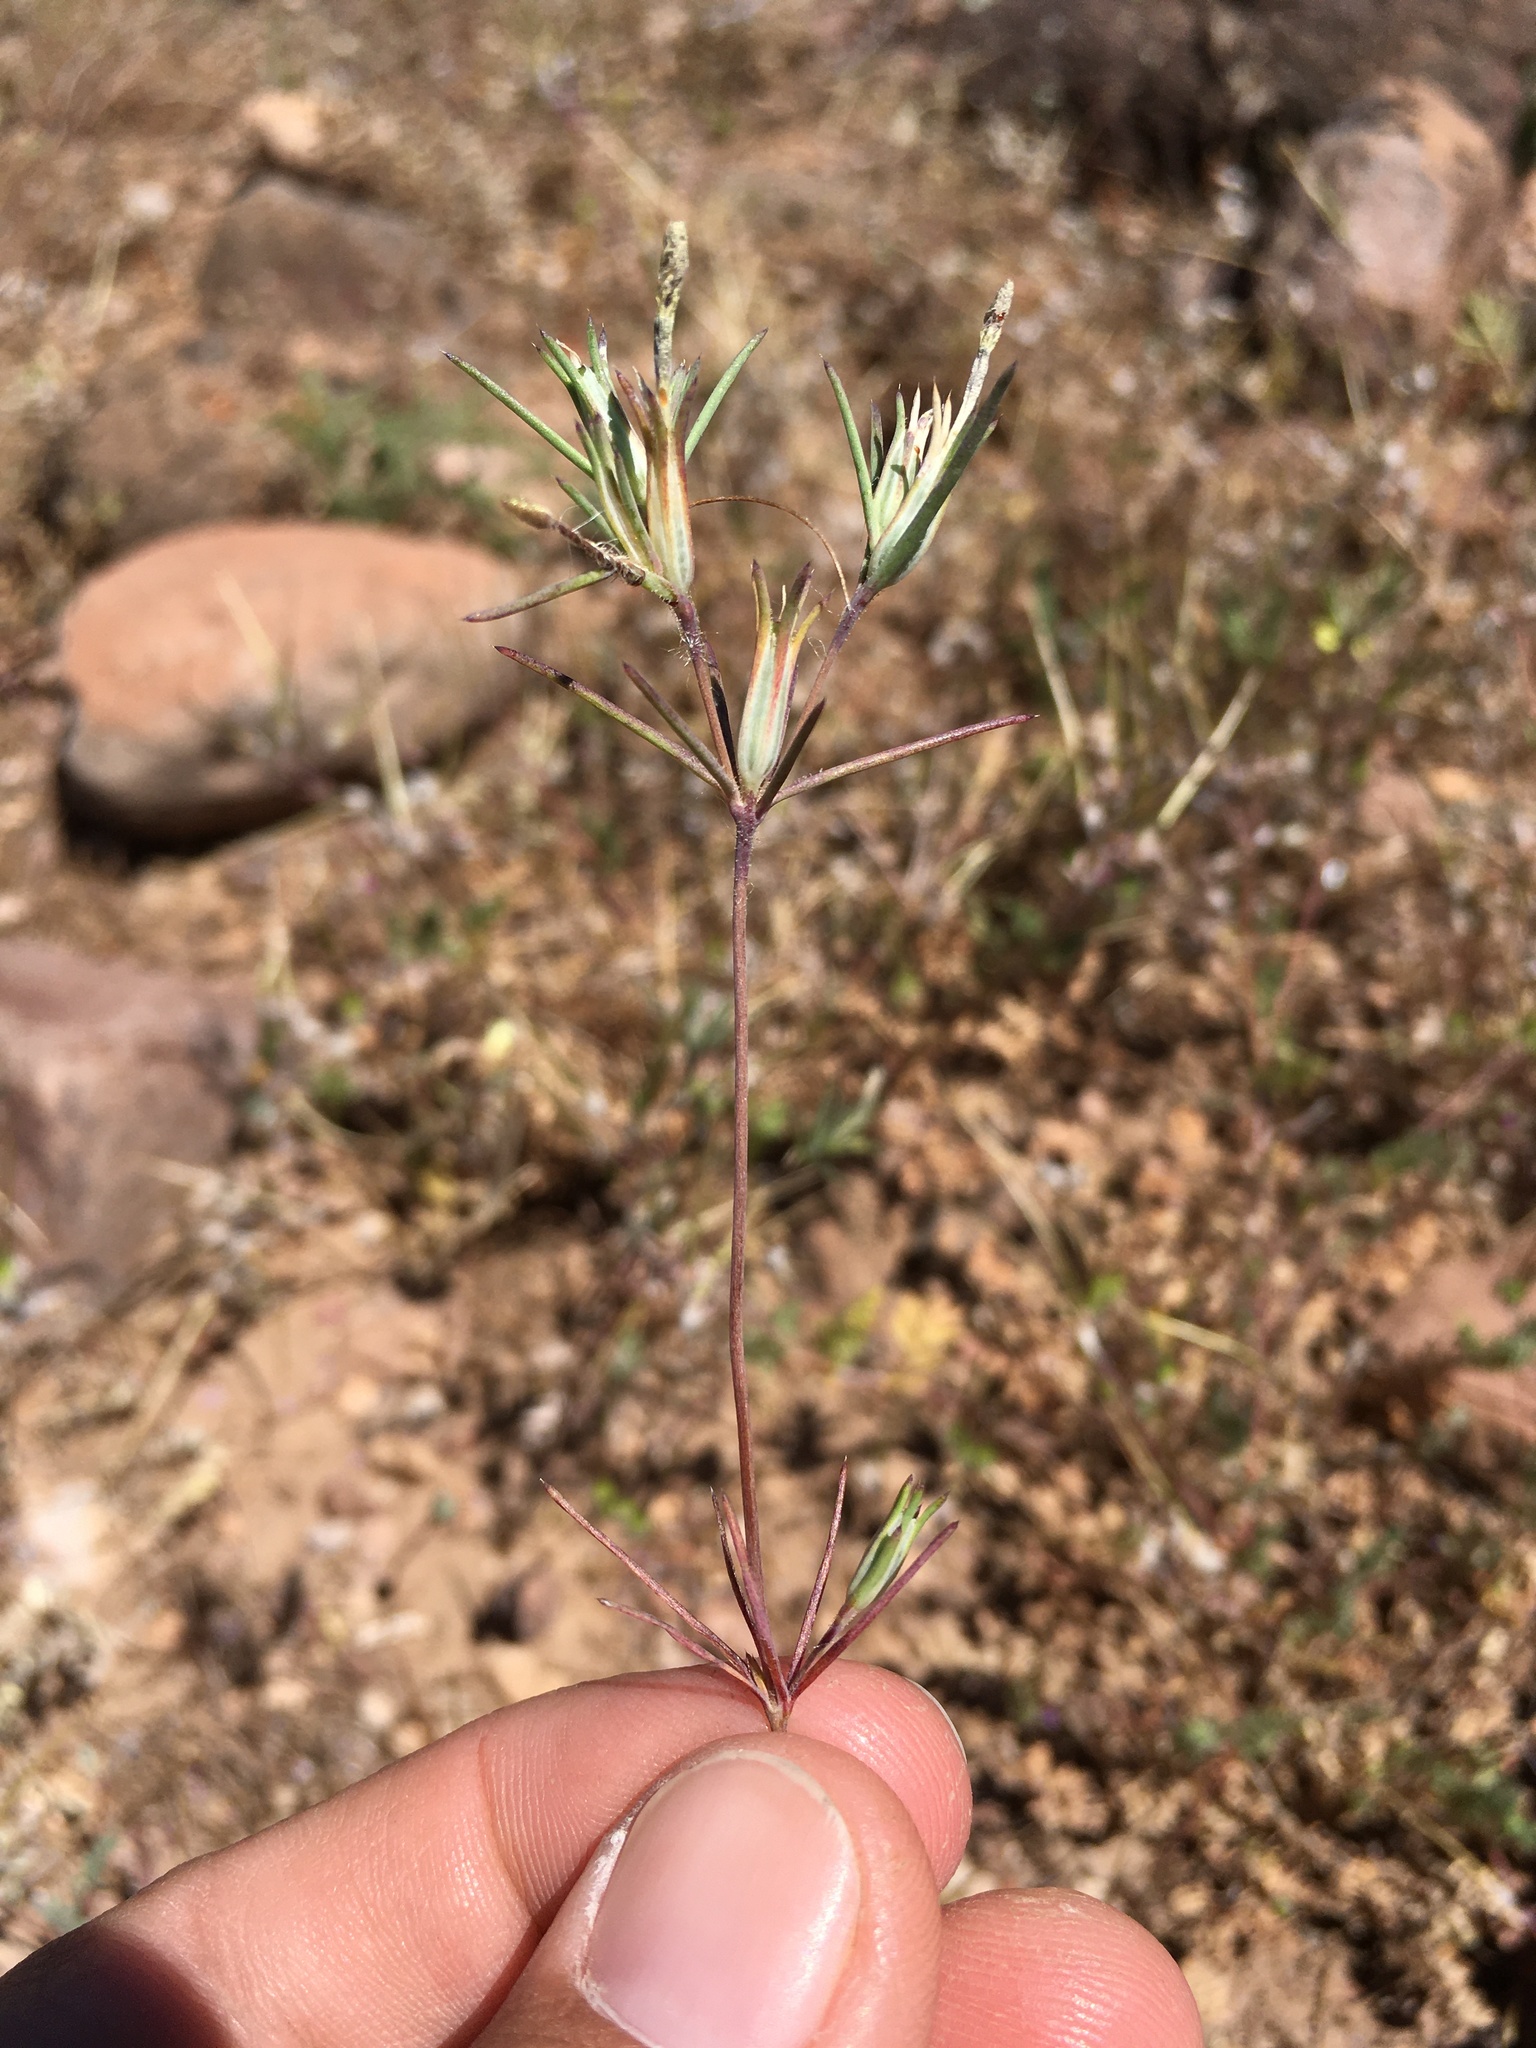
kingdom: Plantae
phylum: Tracheophyta
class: Magnoliopsida
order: Ericales
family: Polemoniaceae
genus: Linanthus
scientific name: Linanthus bigelovii
